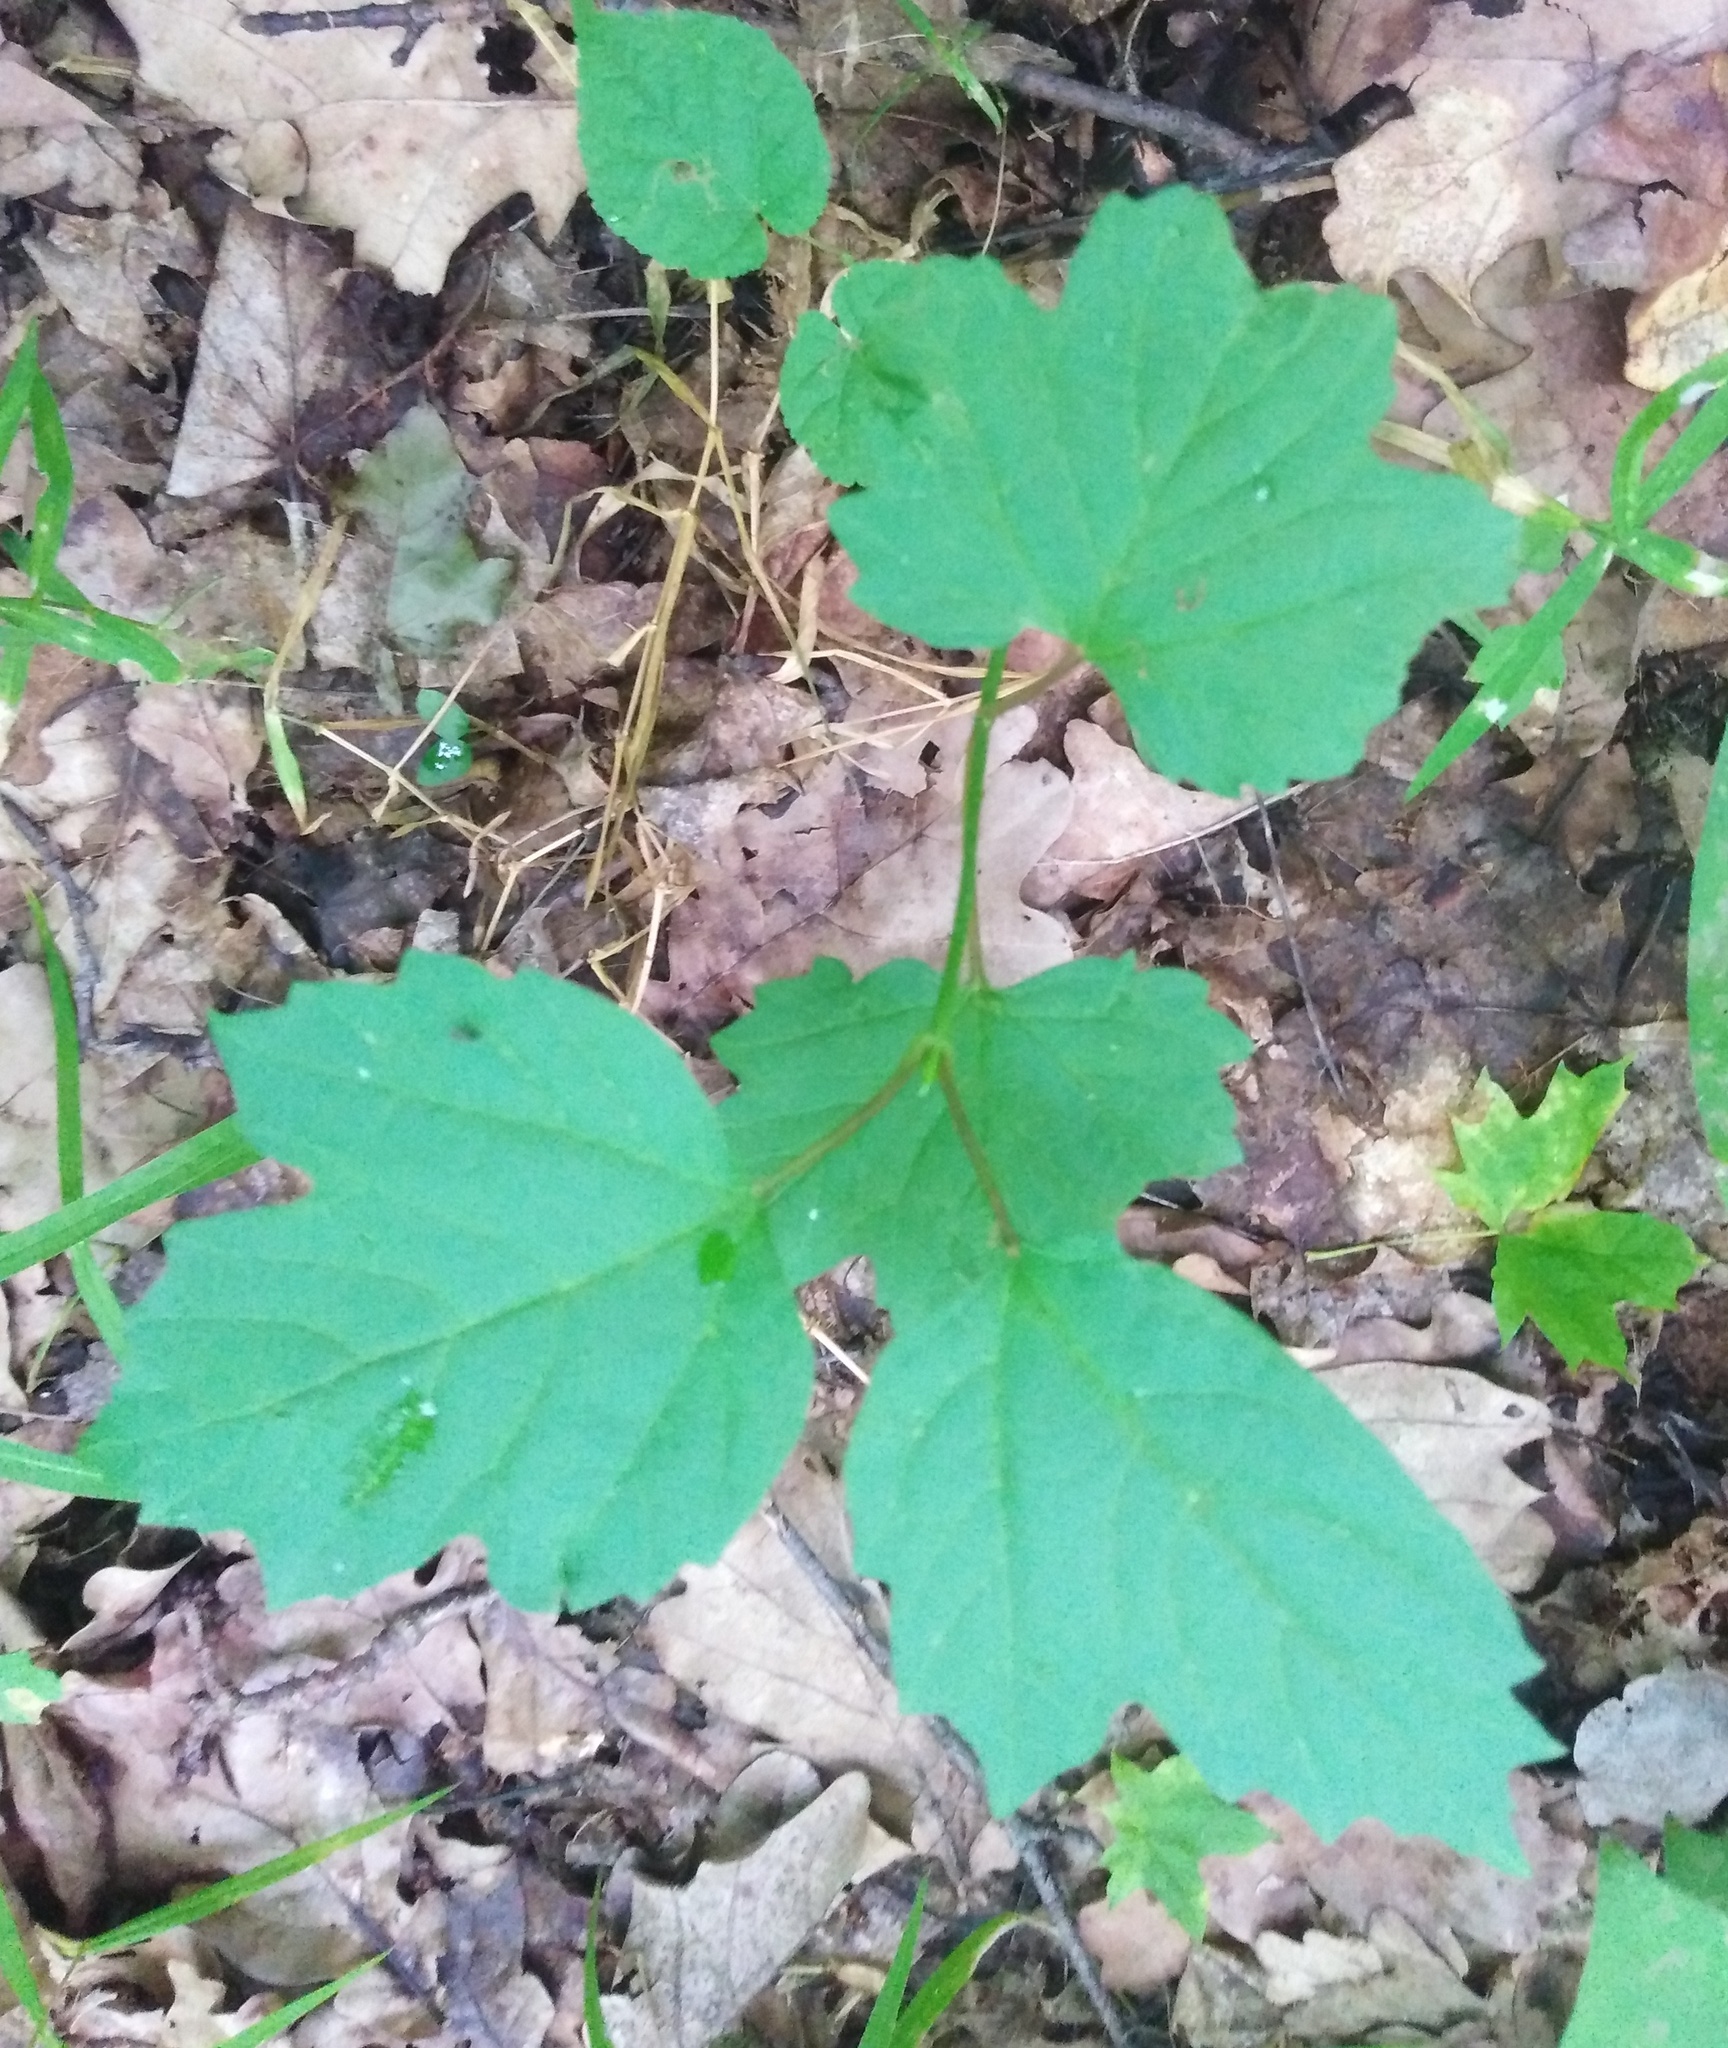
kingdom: Plantae
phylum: Tracheophyta
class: Magnoliopsida
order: Dipsacales
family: Viburnaceae
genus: Viburnum
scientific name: Viburnum opulus
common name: Guelder-rose
